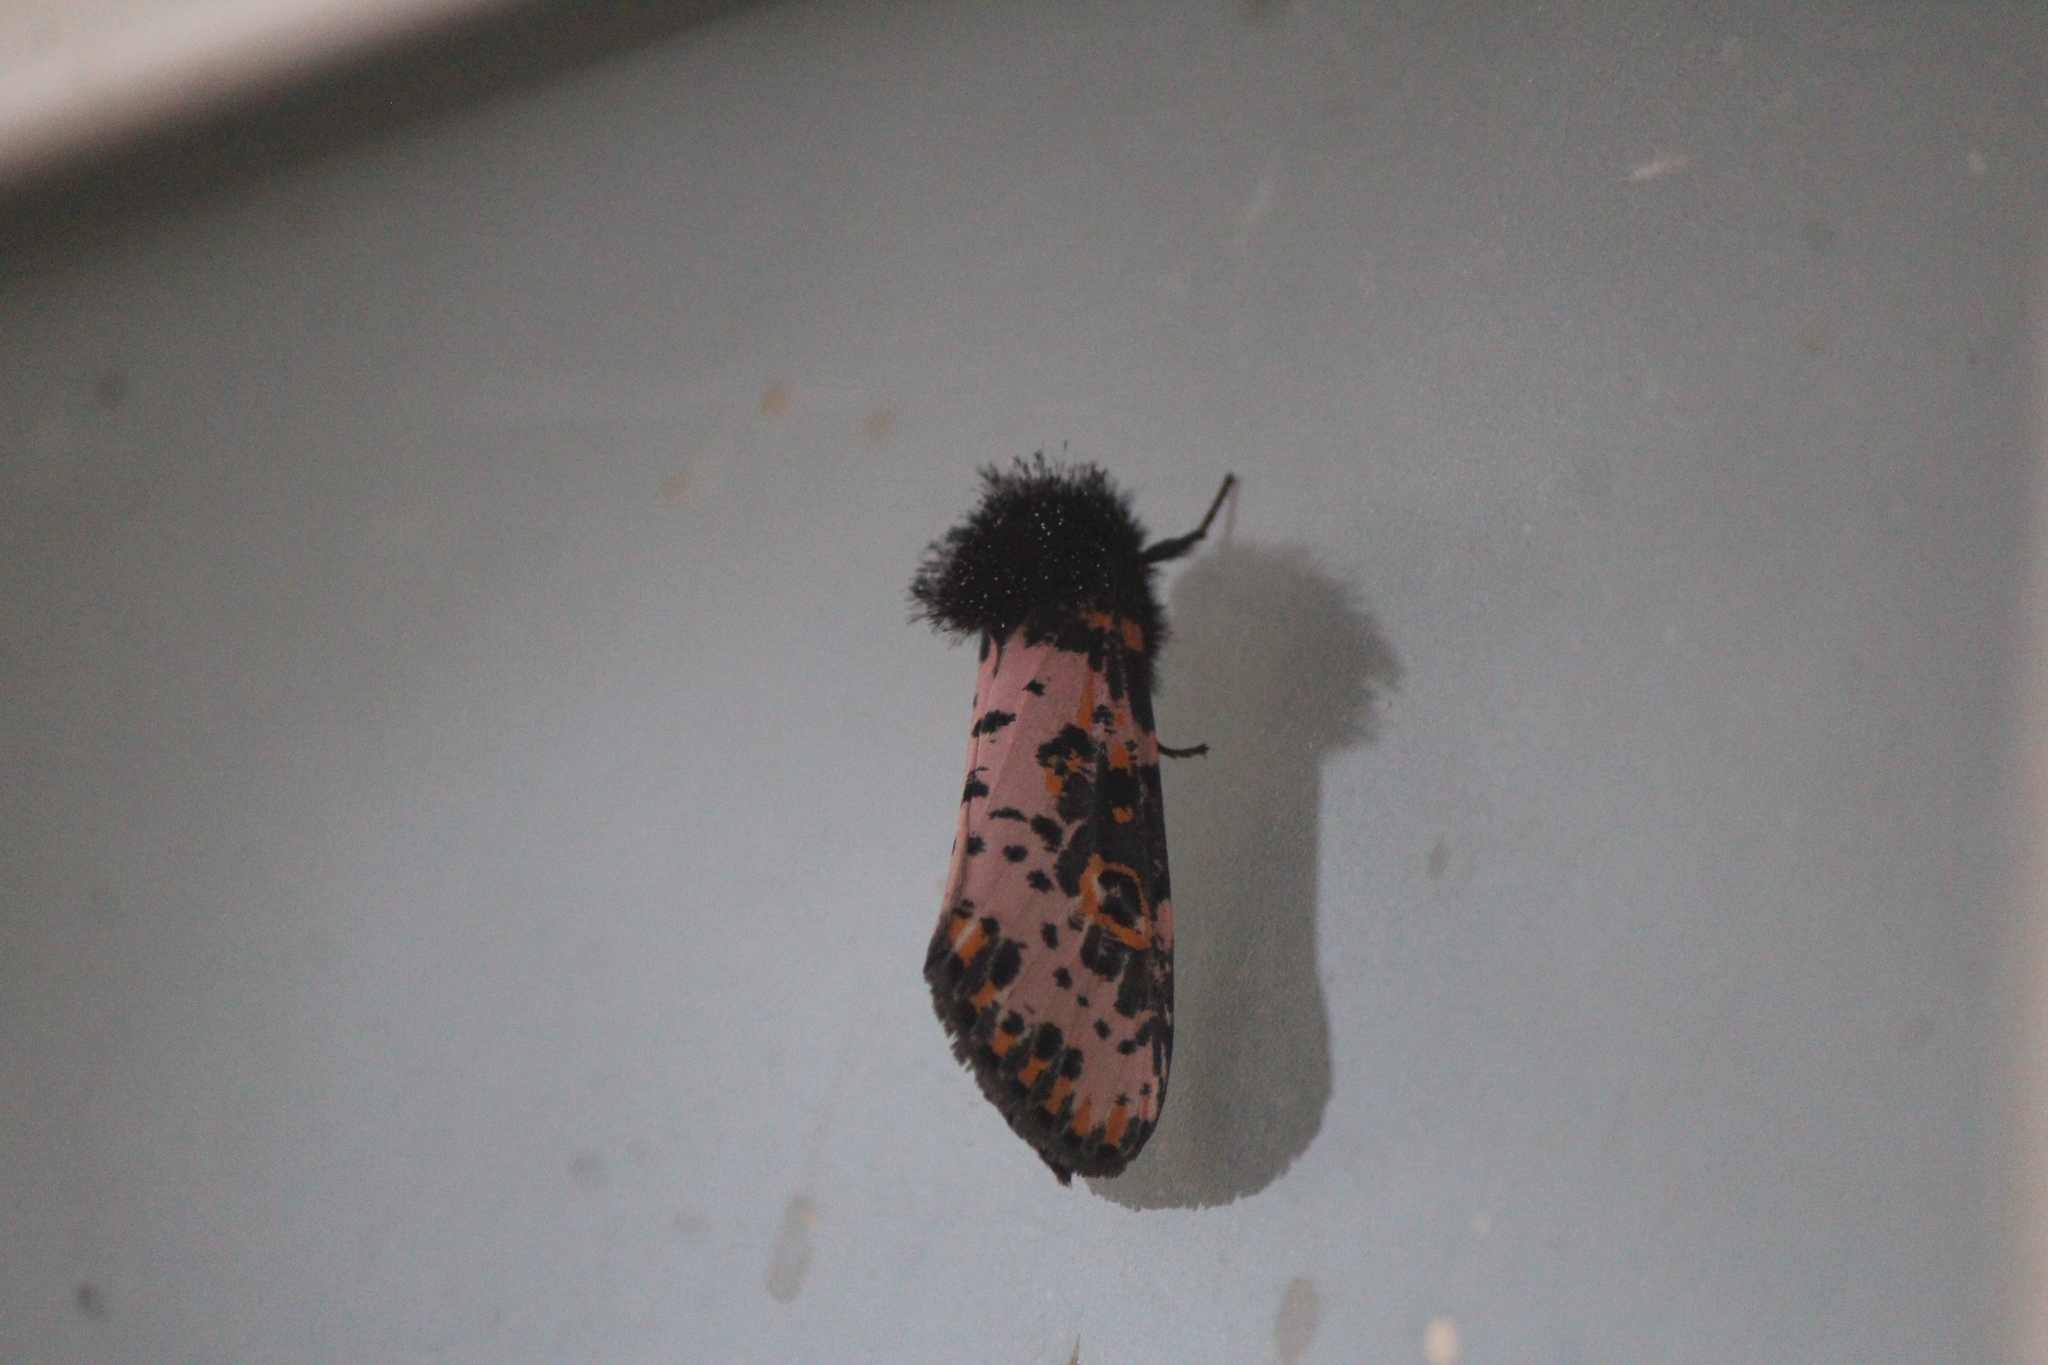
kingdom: Animalia
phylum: Arthropoda
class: Insecta
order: Lepidoptera
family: Noctuidae
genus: Xanthopastis
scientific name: Xanthopastis moctezuma
